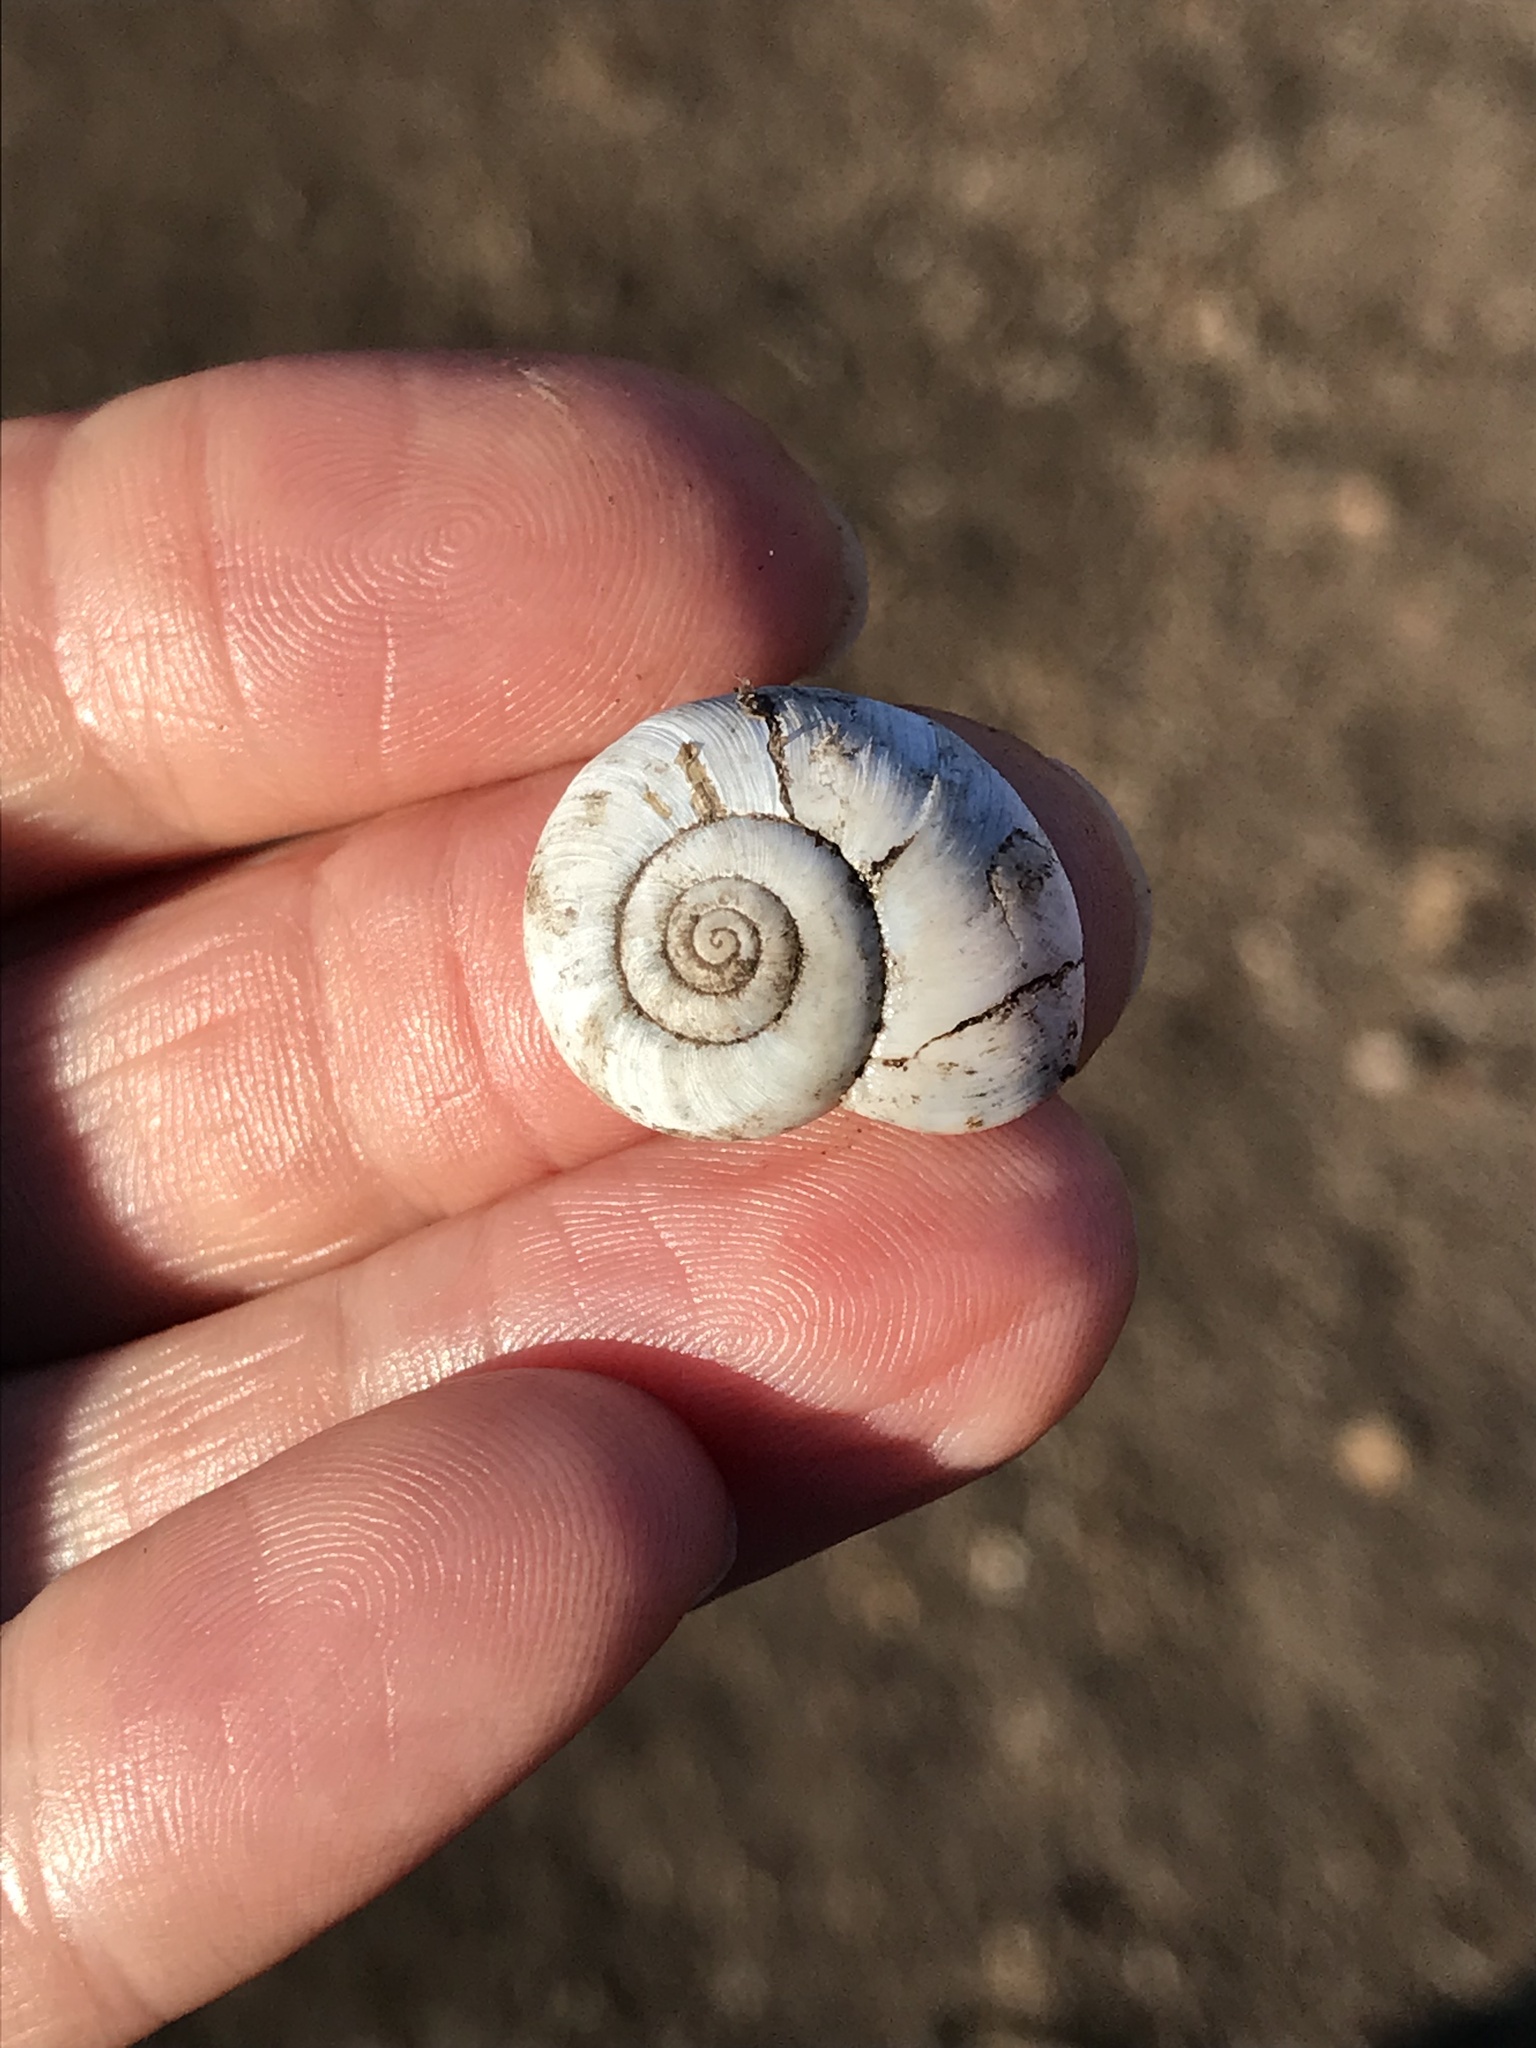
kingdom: Animalia
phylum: Mollusca
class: Gastropoda
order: Stylommatophora
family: Haplotrematidae
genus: Haplotrema
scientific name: Haplotrema minimum
